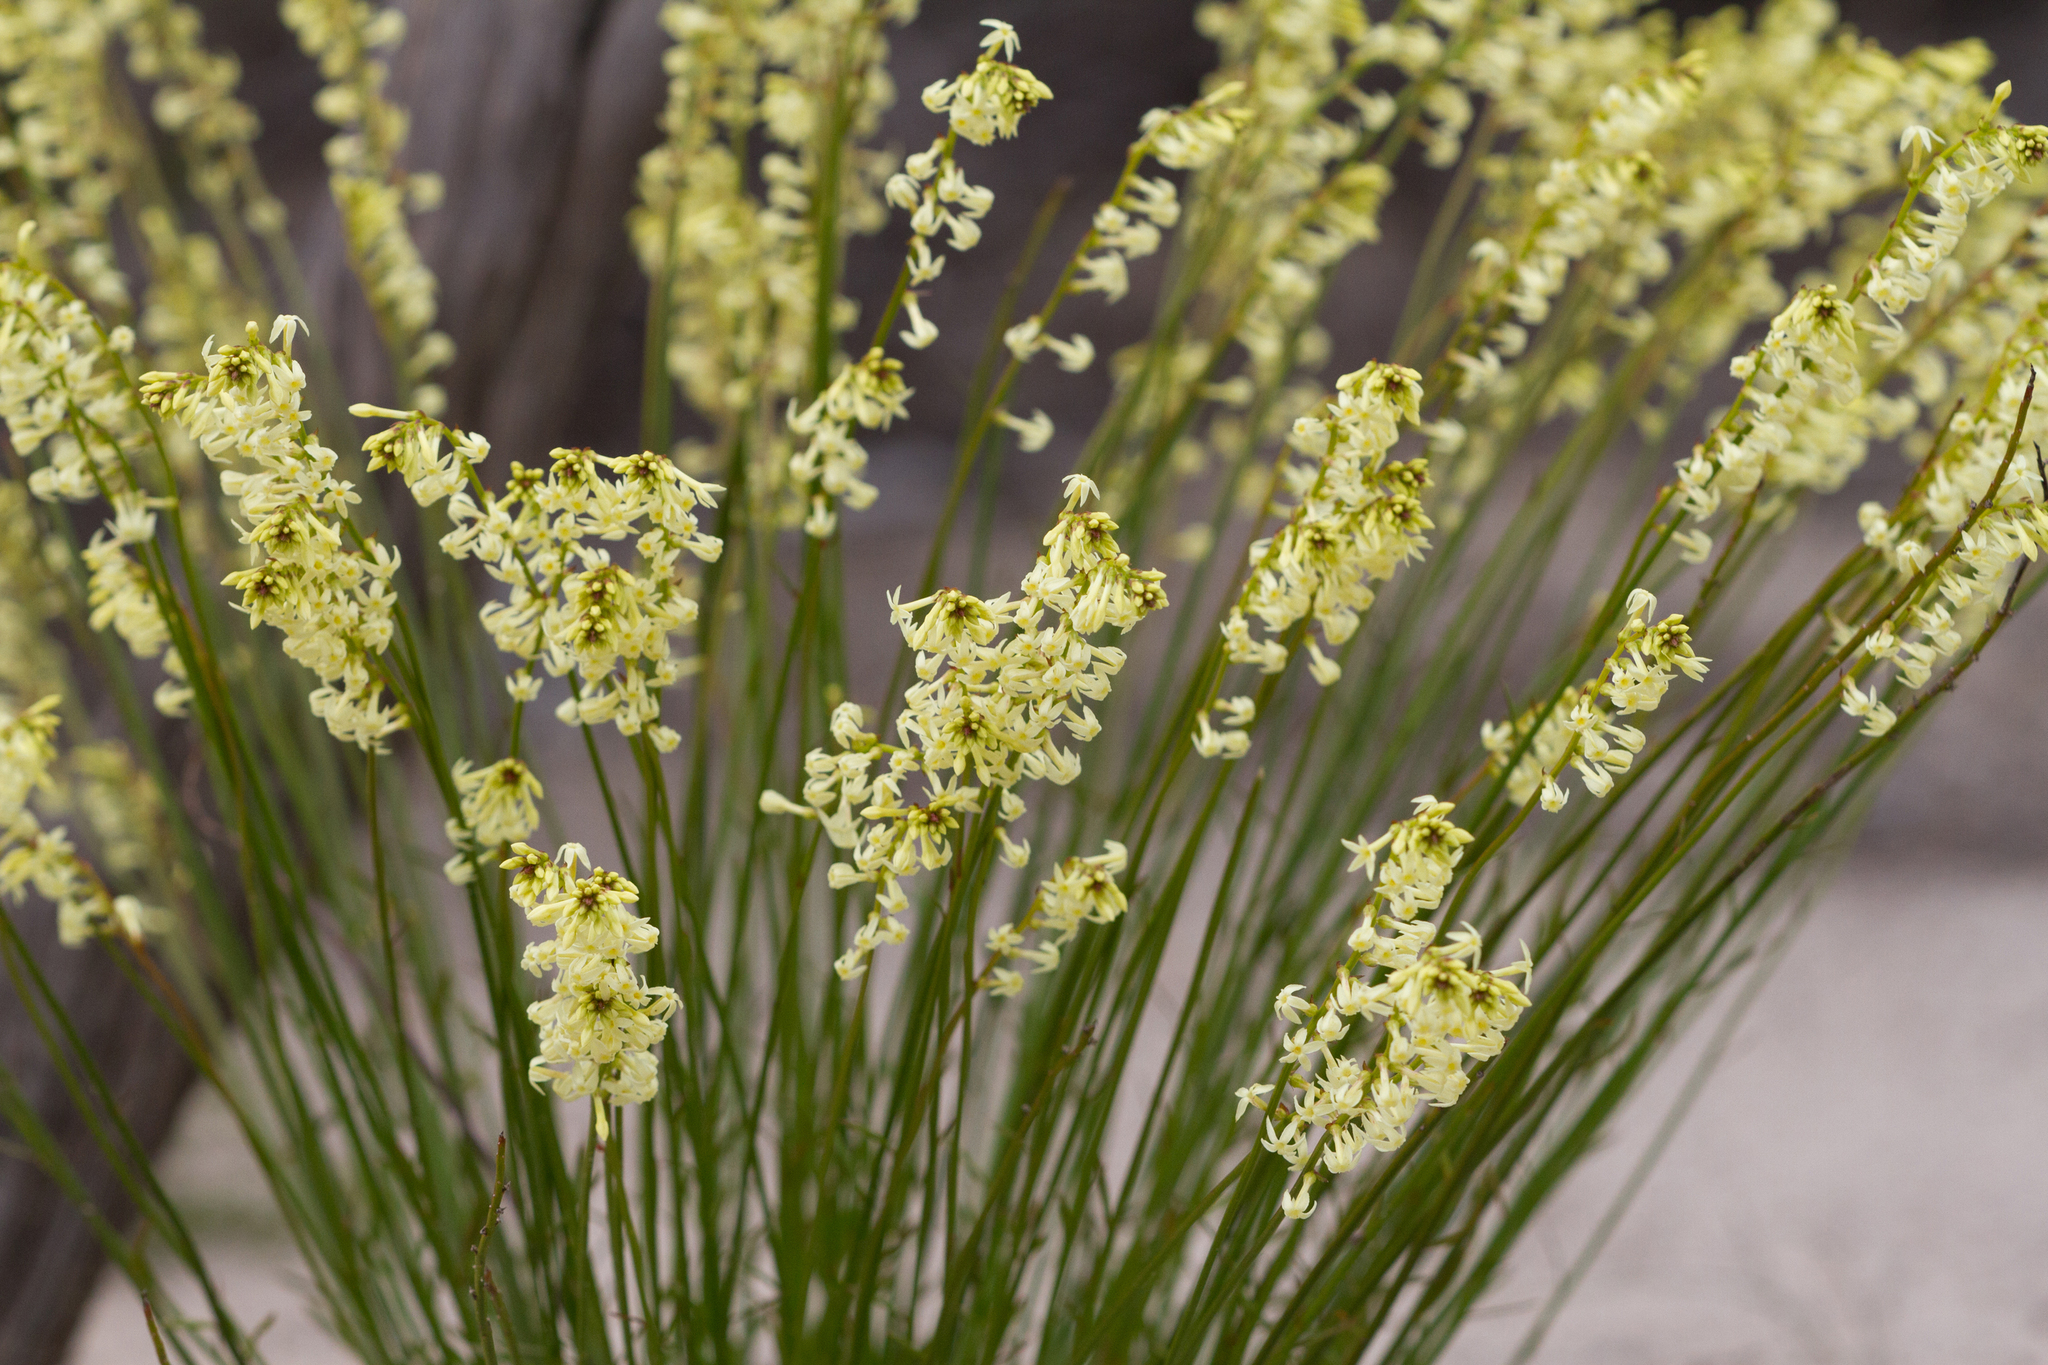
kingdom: Plantae
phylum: Tracheophyta
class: Magnoliopsida
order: Celastrales
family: Celastraceae
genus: Stackhousia
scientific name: Stackhousia monogyna
